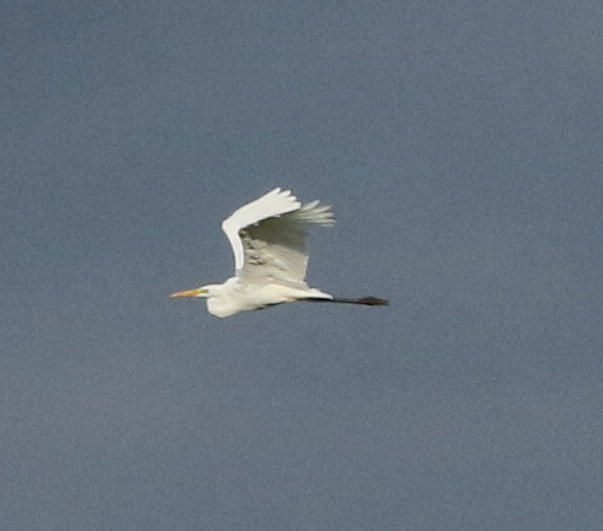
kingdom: Animalia
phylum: Chordata
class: Aves
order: Pelecaniformes
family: Ardeidae
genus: Ardea
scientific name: Ardea alba
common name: Great egret
